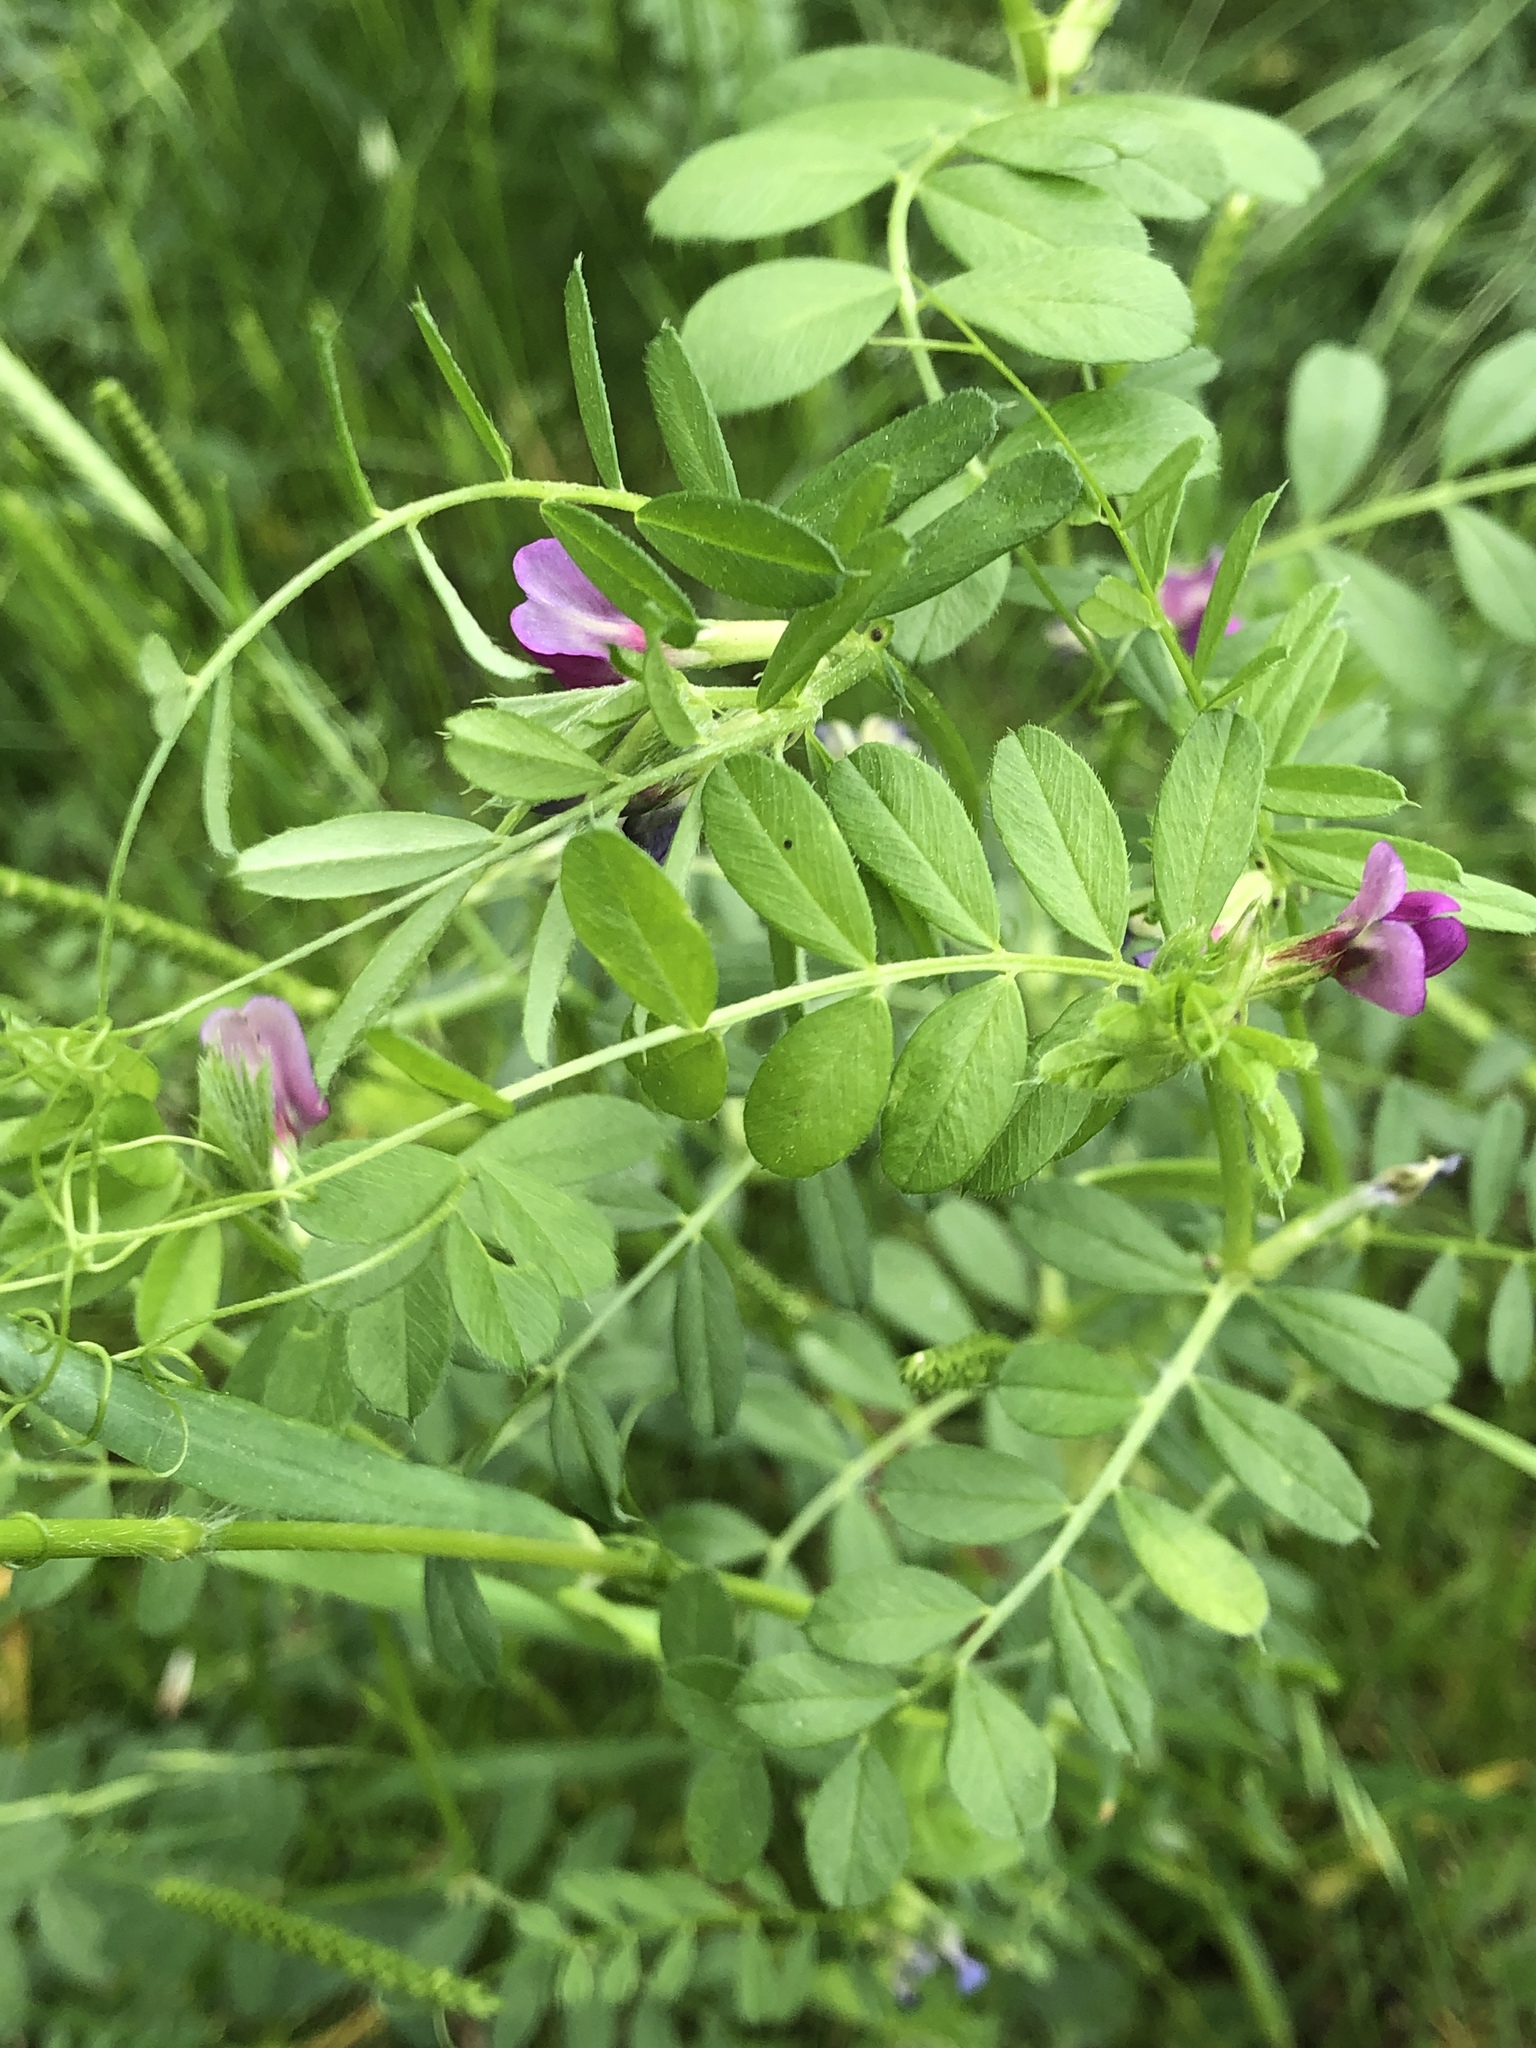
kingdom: Plantae
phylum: Tracheophyta
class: Magnoliopsida
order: Fabales
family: Fabaceae
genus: Vicia
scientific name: Vicia sativa
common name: Garden vetch
